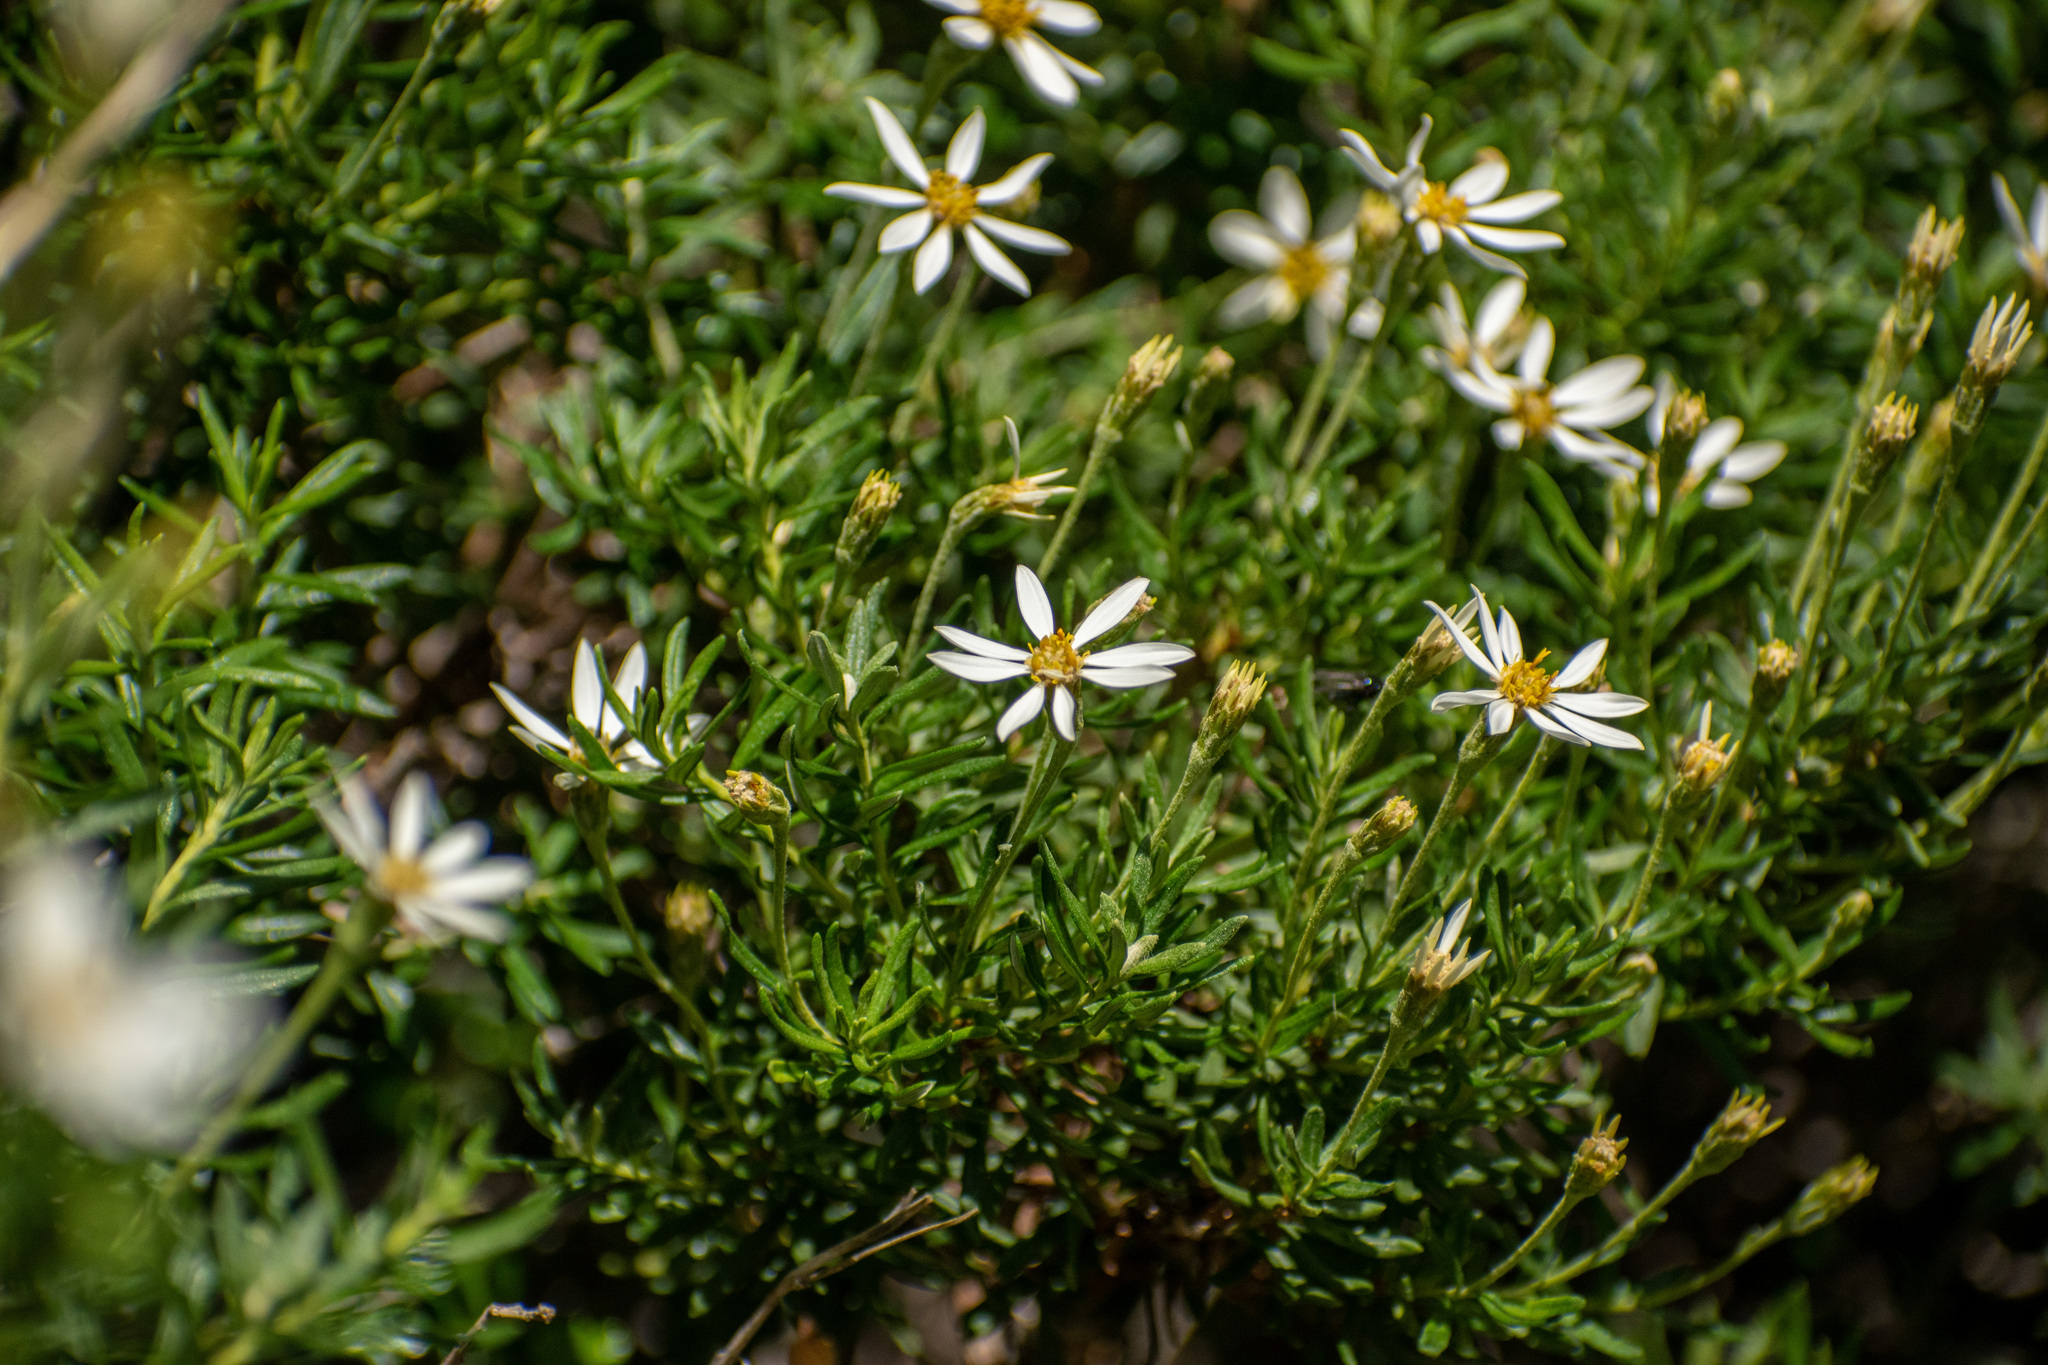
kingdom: Plantae
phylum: Tracheophyta
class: Magnoliopsida
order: Asterales
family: Asteraceae
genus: Chiliotrichum
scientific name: Chiliotrichum diffusum
